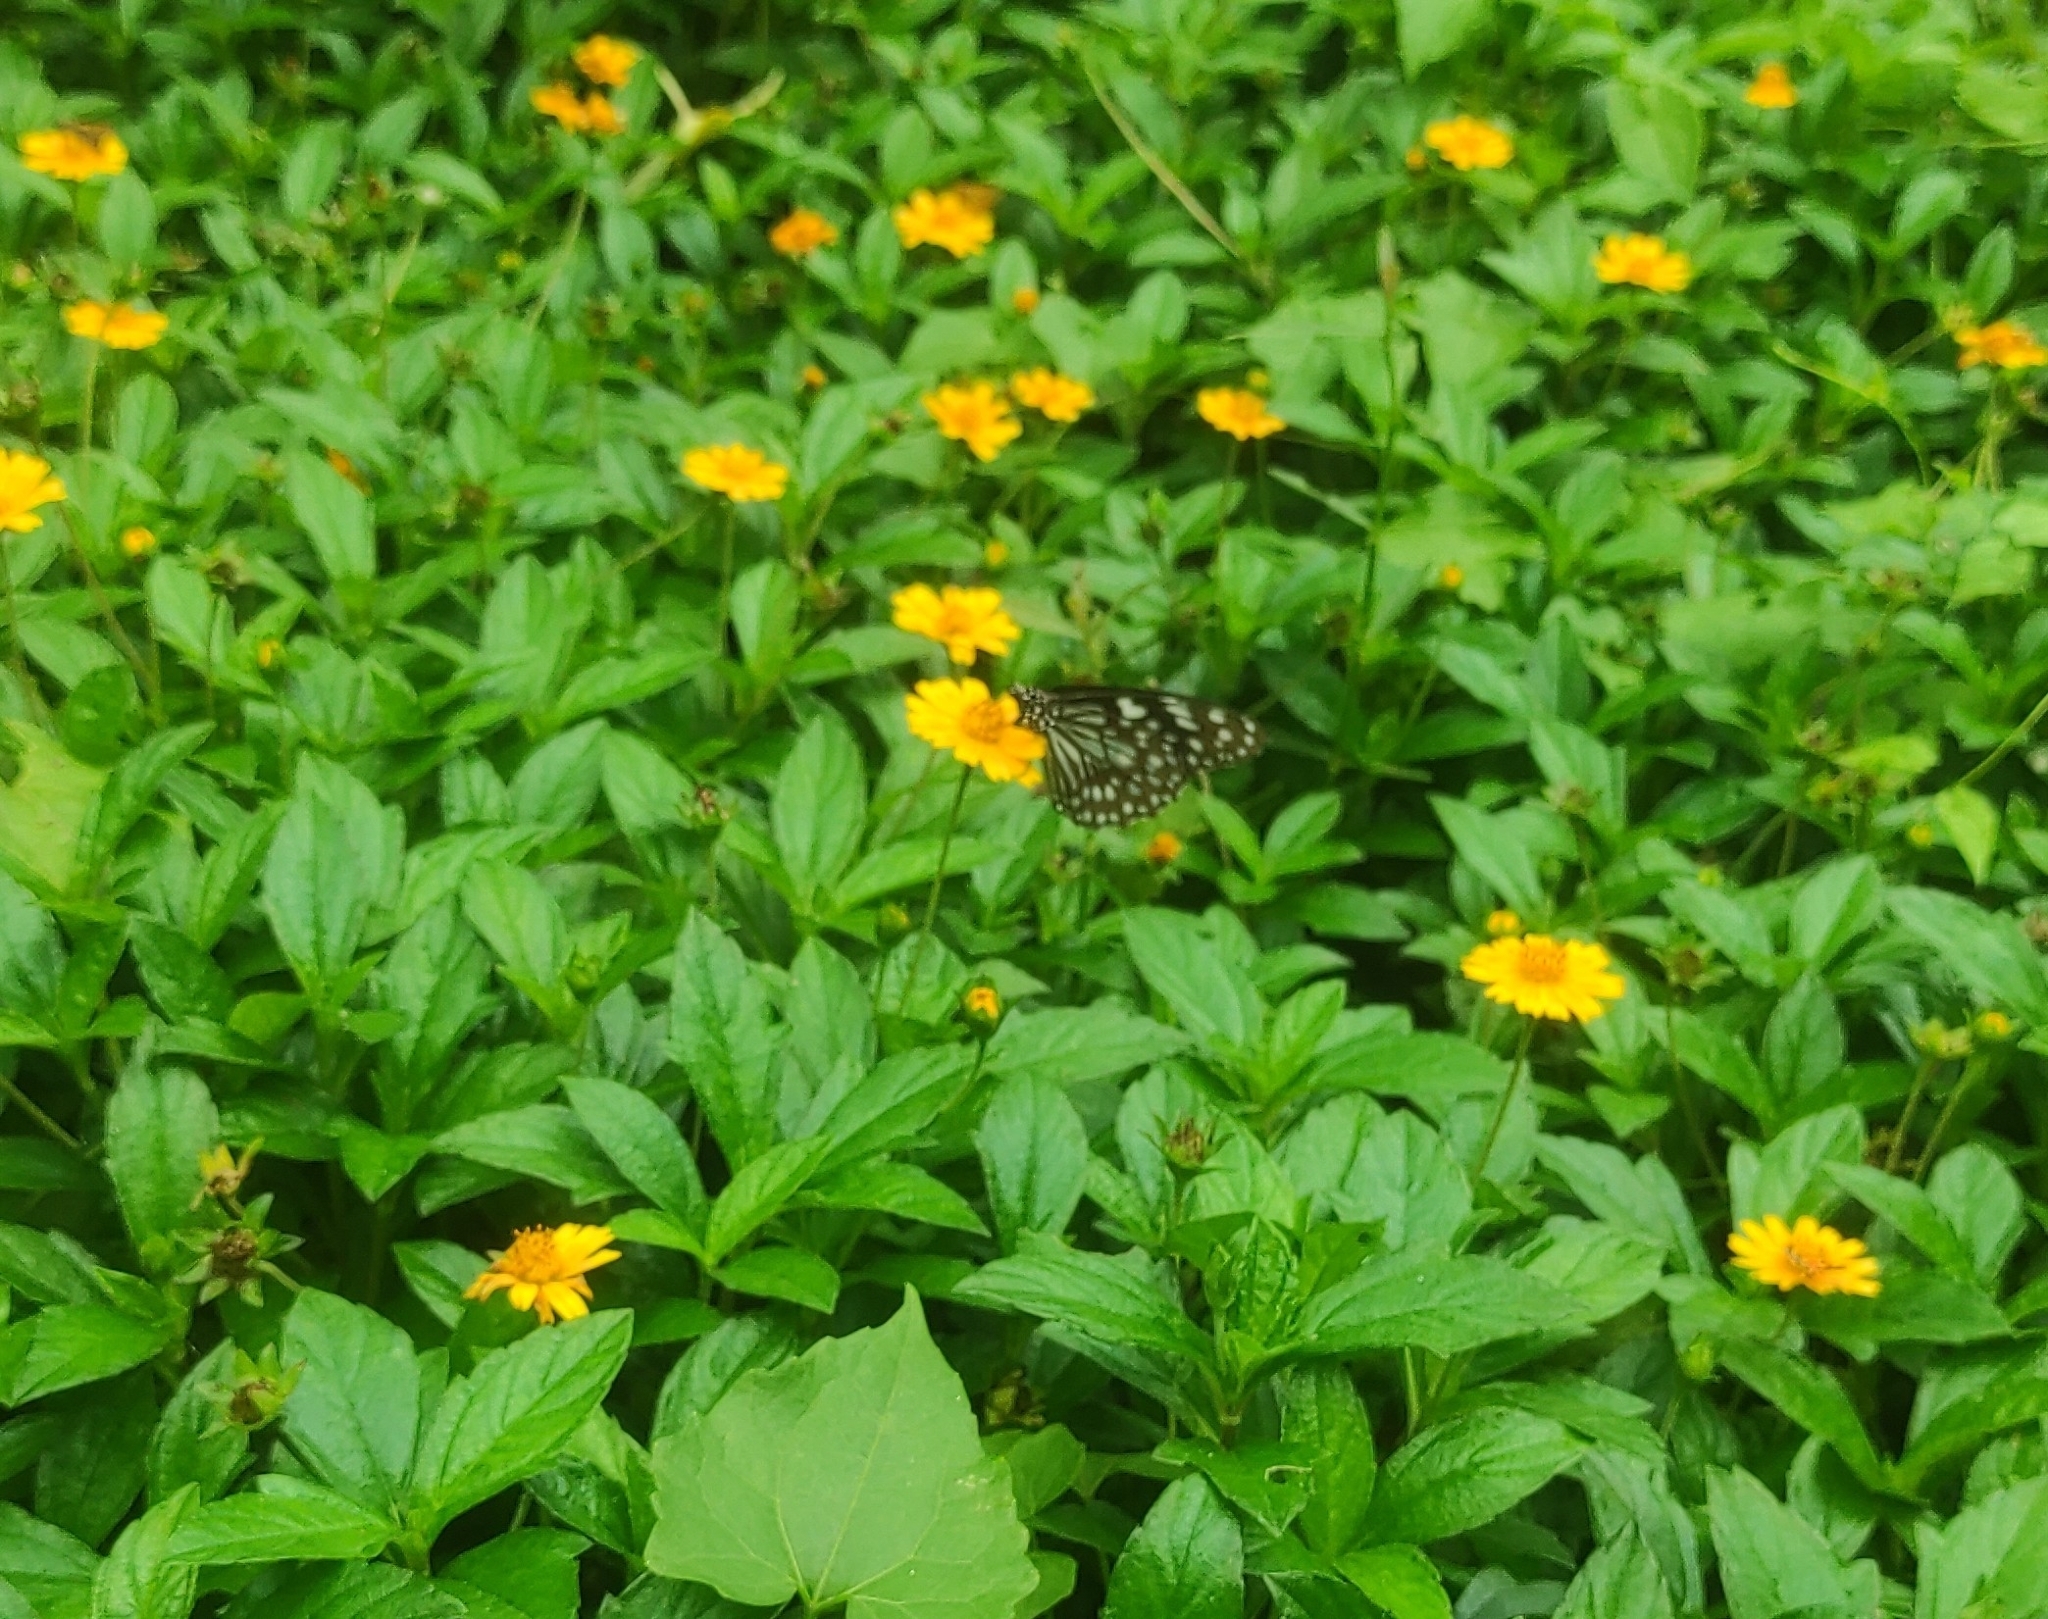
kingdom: Animalia
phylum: Arthropoda
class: Insecta
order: Lepidoptera
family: Nymphalidae
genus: Tirumala
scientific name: Tirumala limniace
